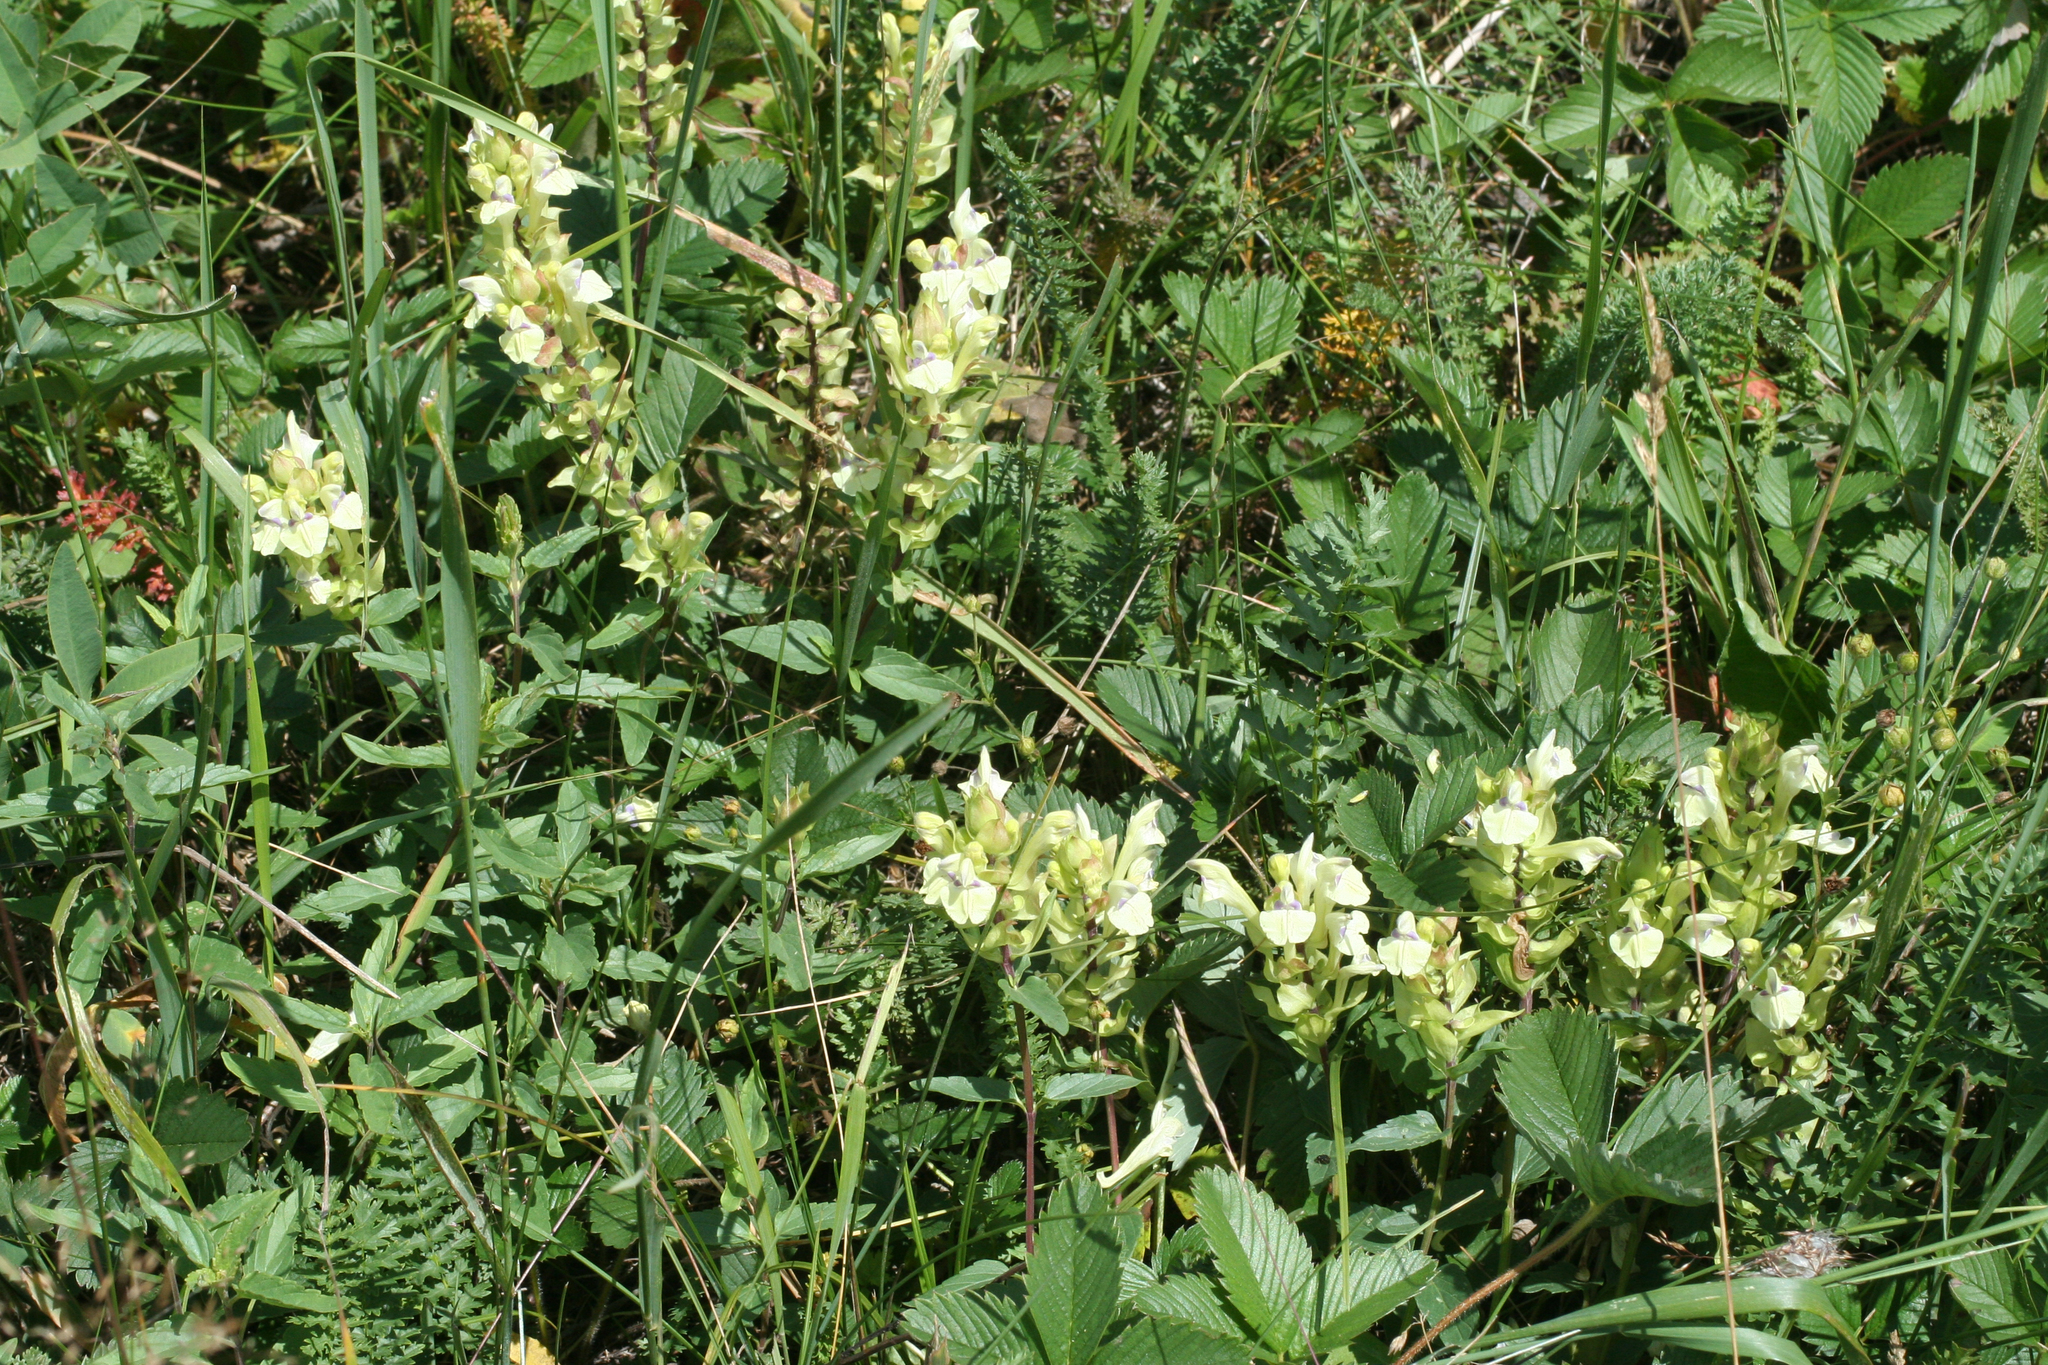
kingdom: Plantae
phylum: Tracheophyta
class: Magnoliopsida
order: Lamiales
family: Lamiaceae
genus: Scutellaria
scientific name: Scutellaria supina
